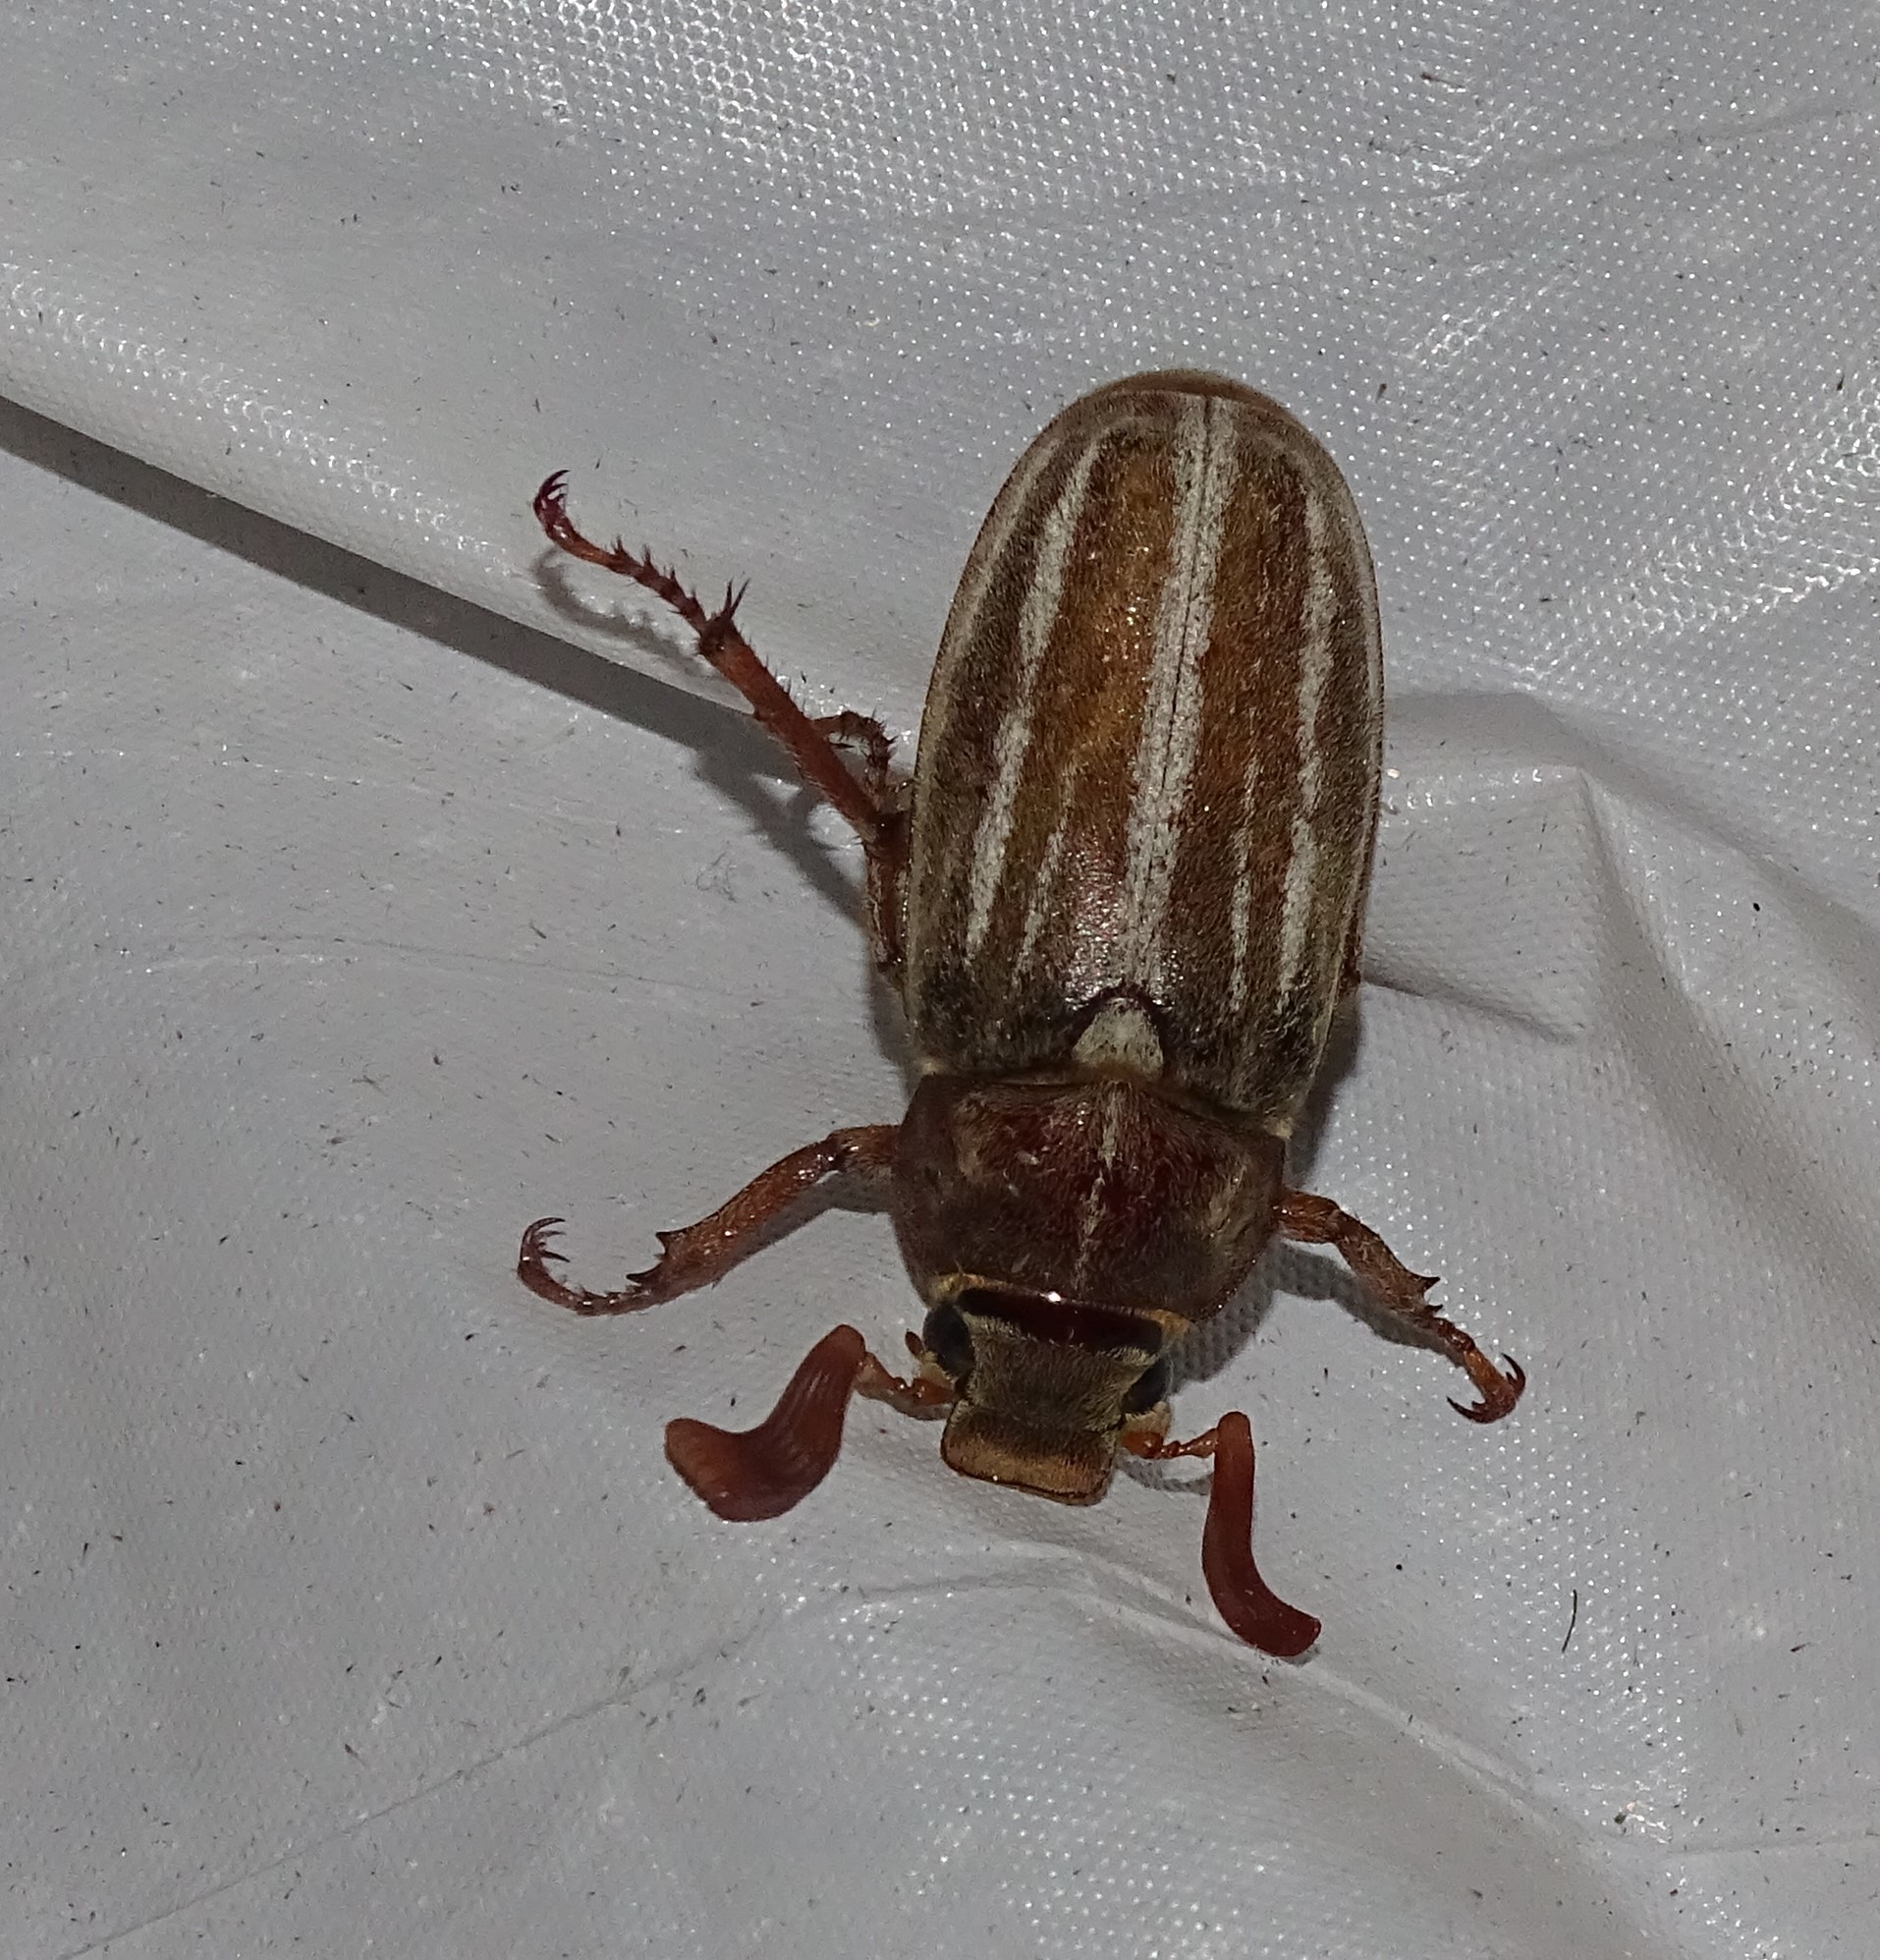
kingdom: Animalia
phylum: Arthropoda
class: Insecta
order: Coleoptera
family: Scarabaeidae
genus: Polyphylla
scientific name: Polyphylla occidentalis
